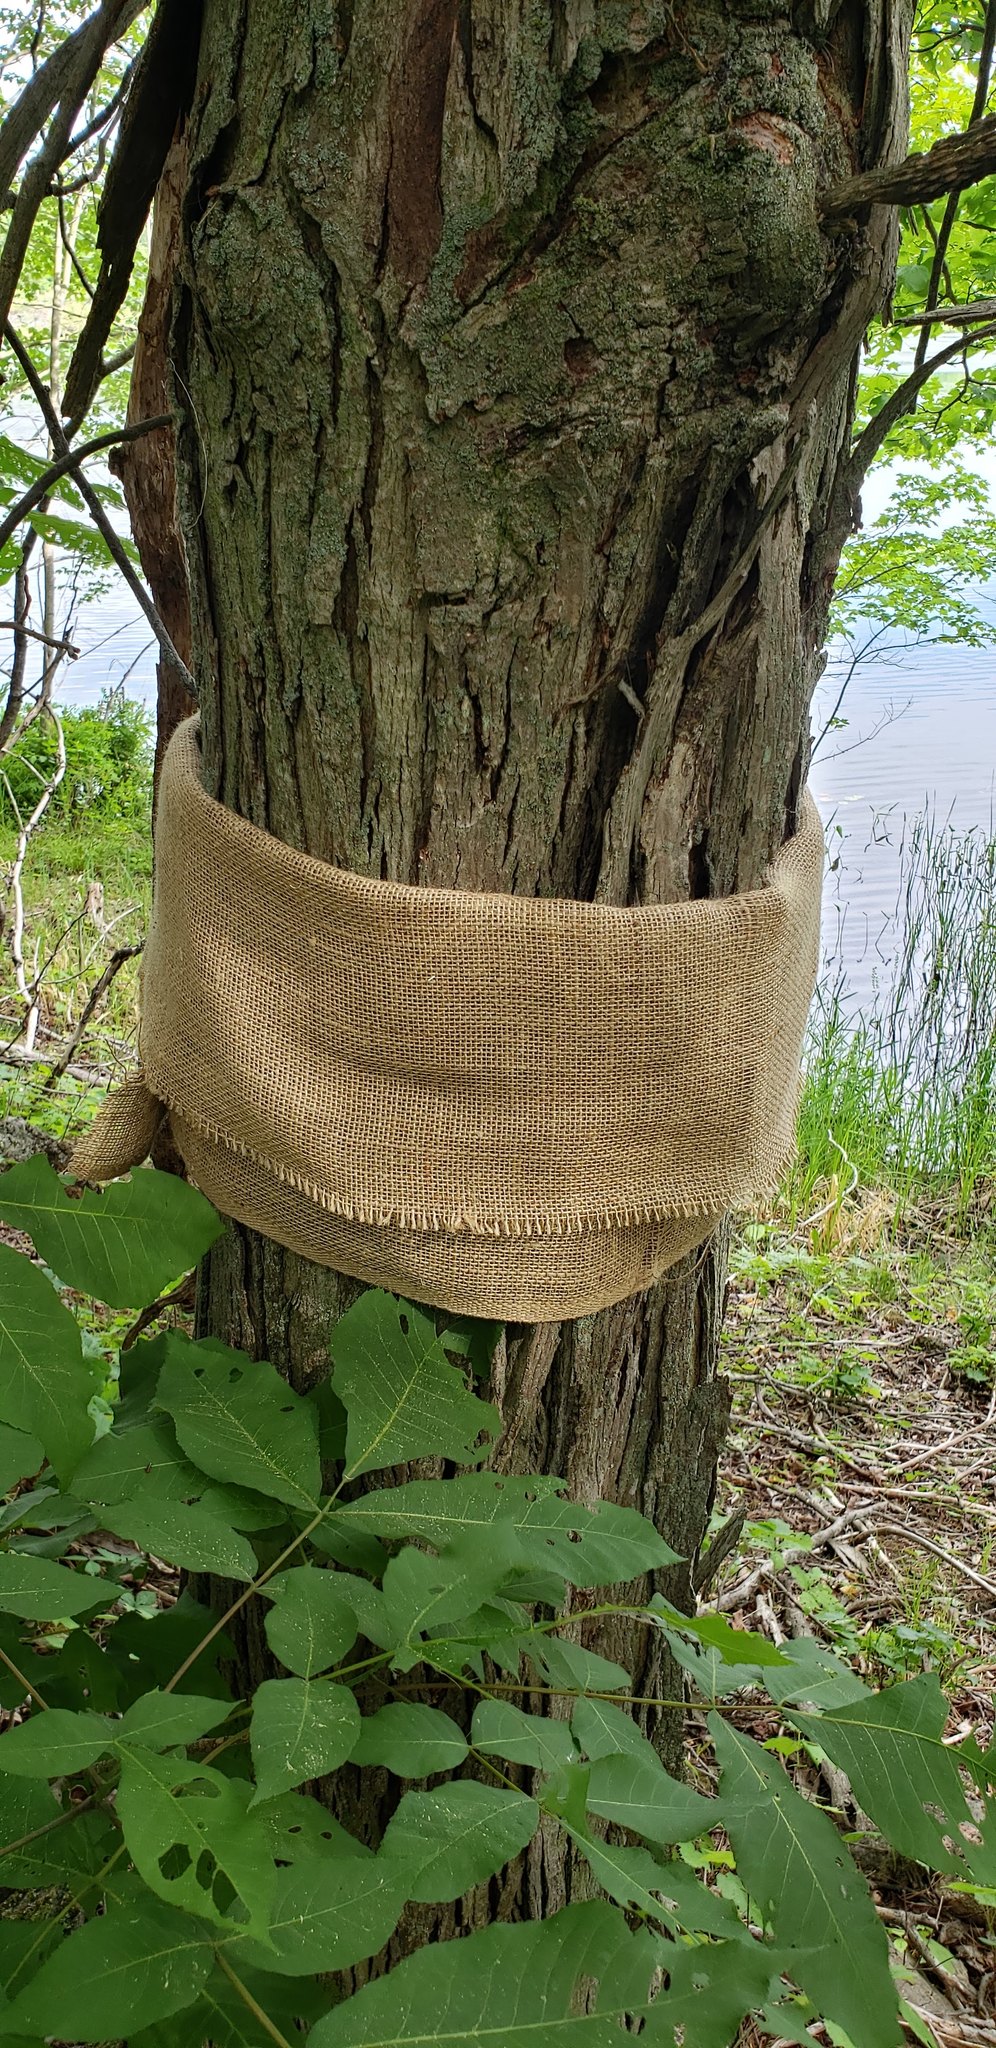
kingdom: Plantae
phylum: Tracheophyta
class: Magnoliopsida
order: Fagales
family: Juglandaceae
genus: Carya
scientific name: Carya ovata
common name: Shagbark hickory
